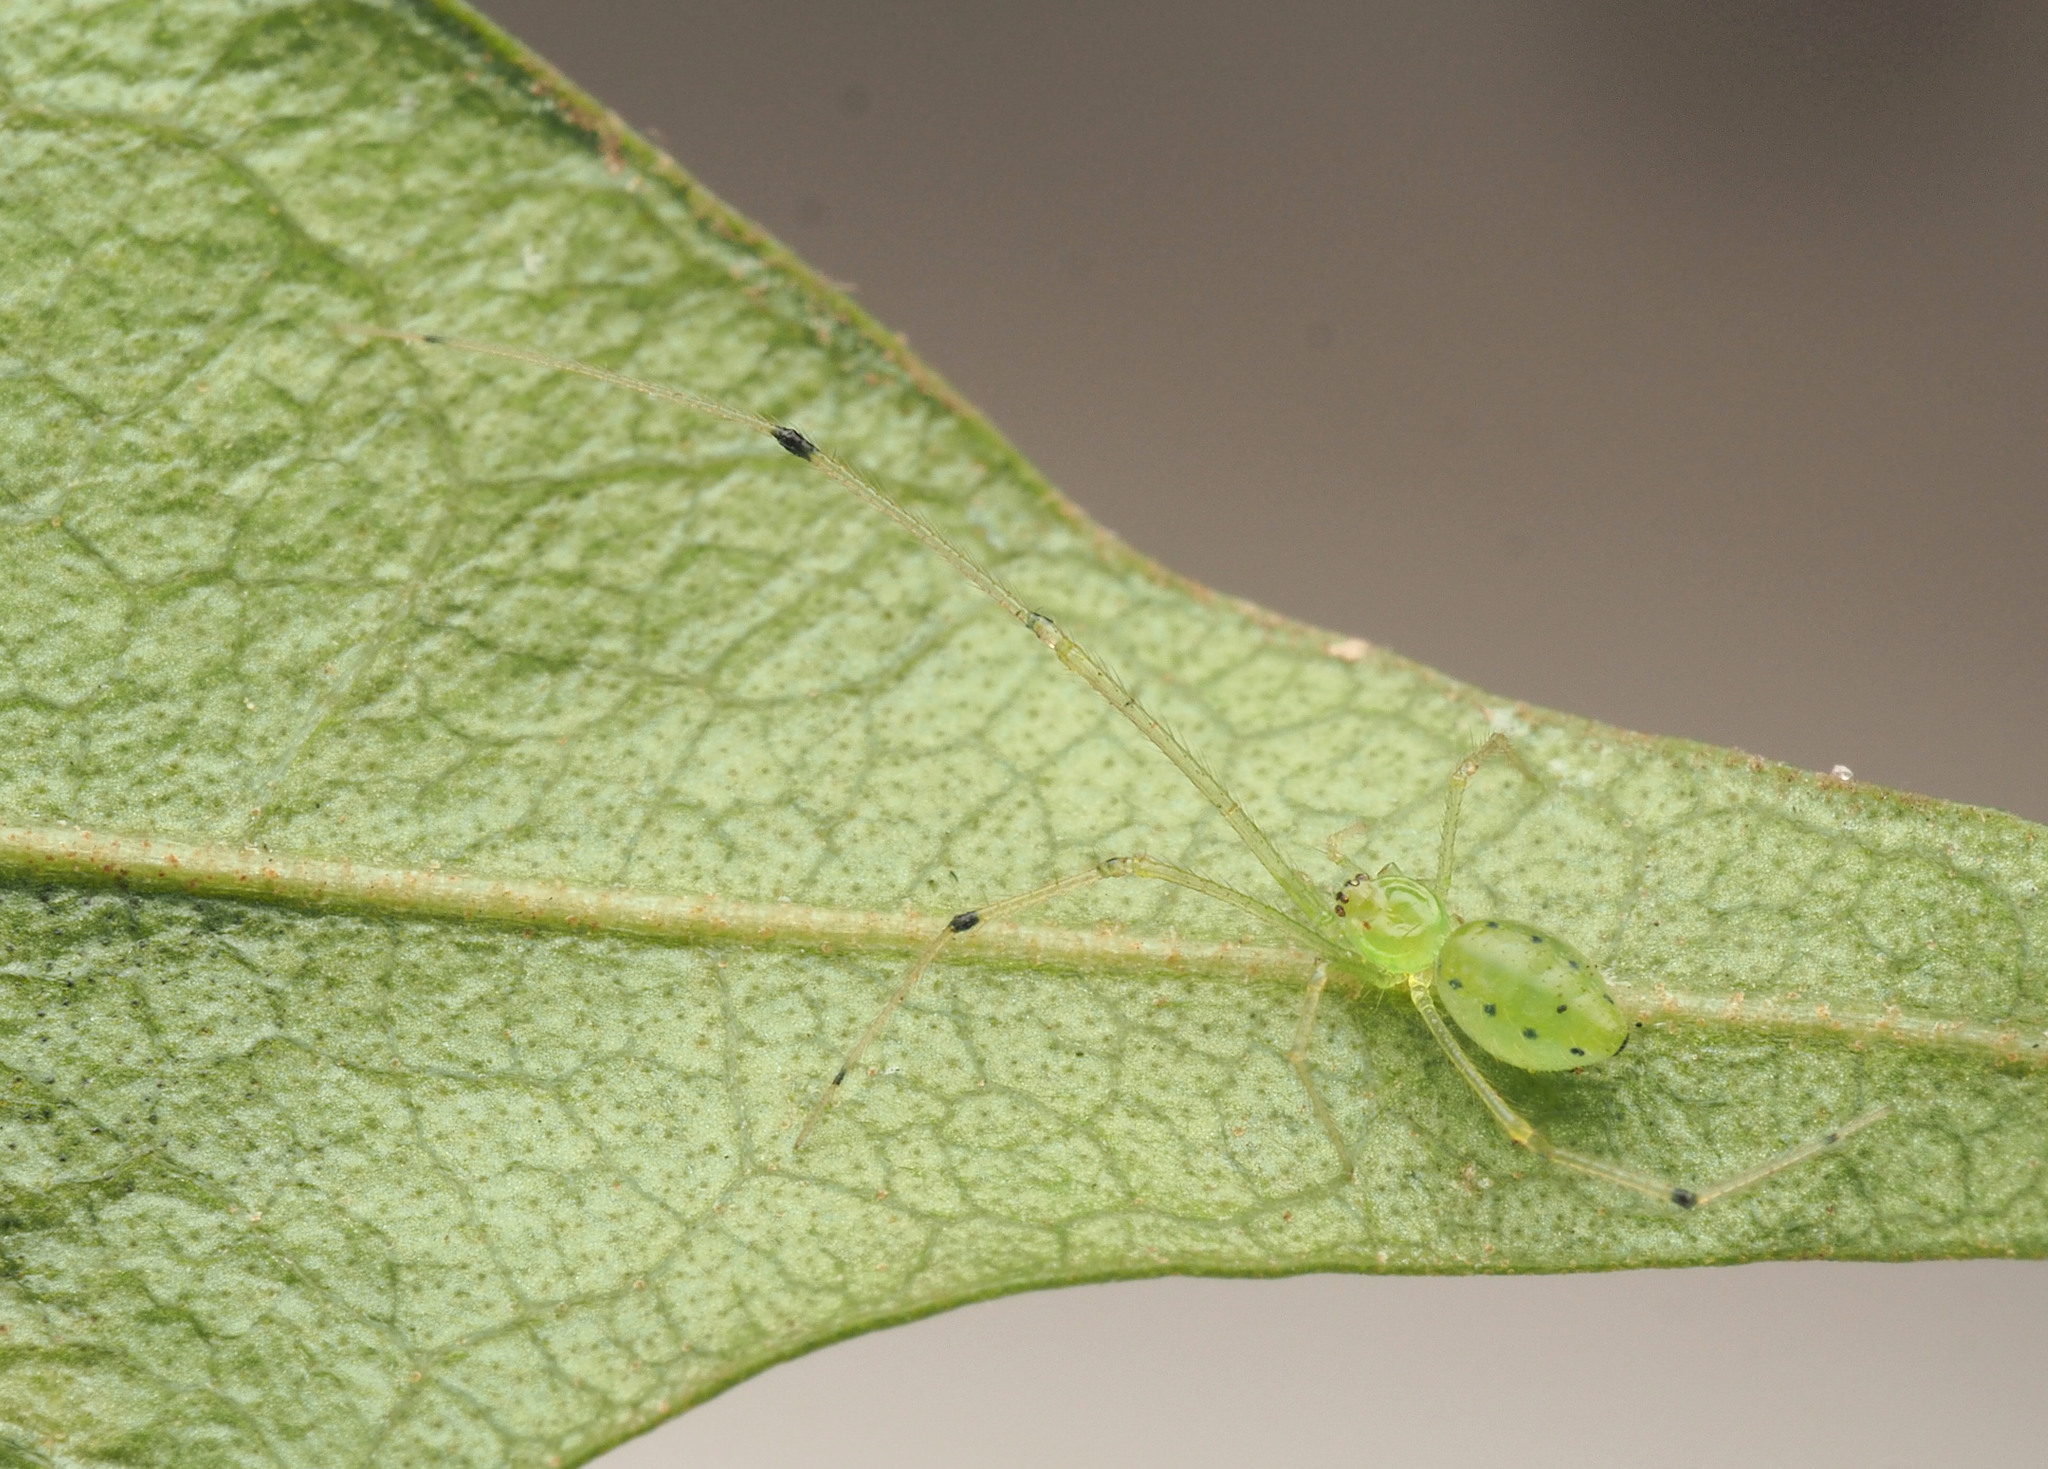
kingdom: Animalia
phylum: Arthropoda
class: Arachnida
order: Araneae
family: Theridiidae
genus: Chrysso
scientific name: Chrysso
